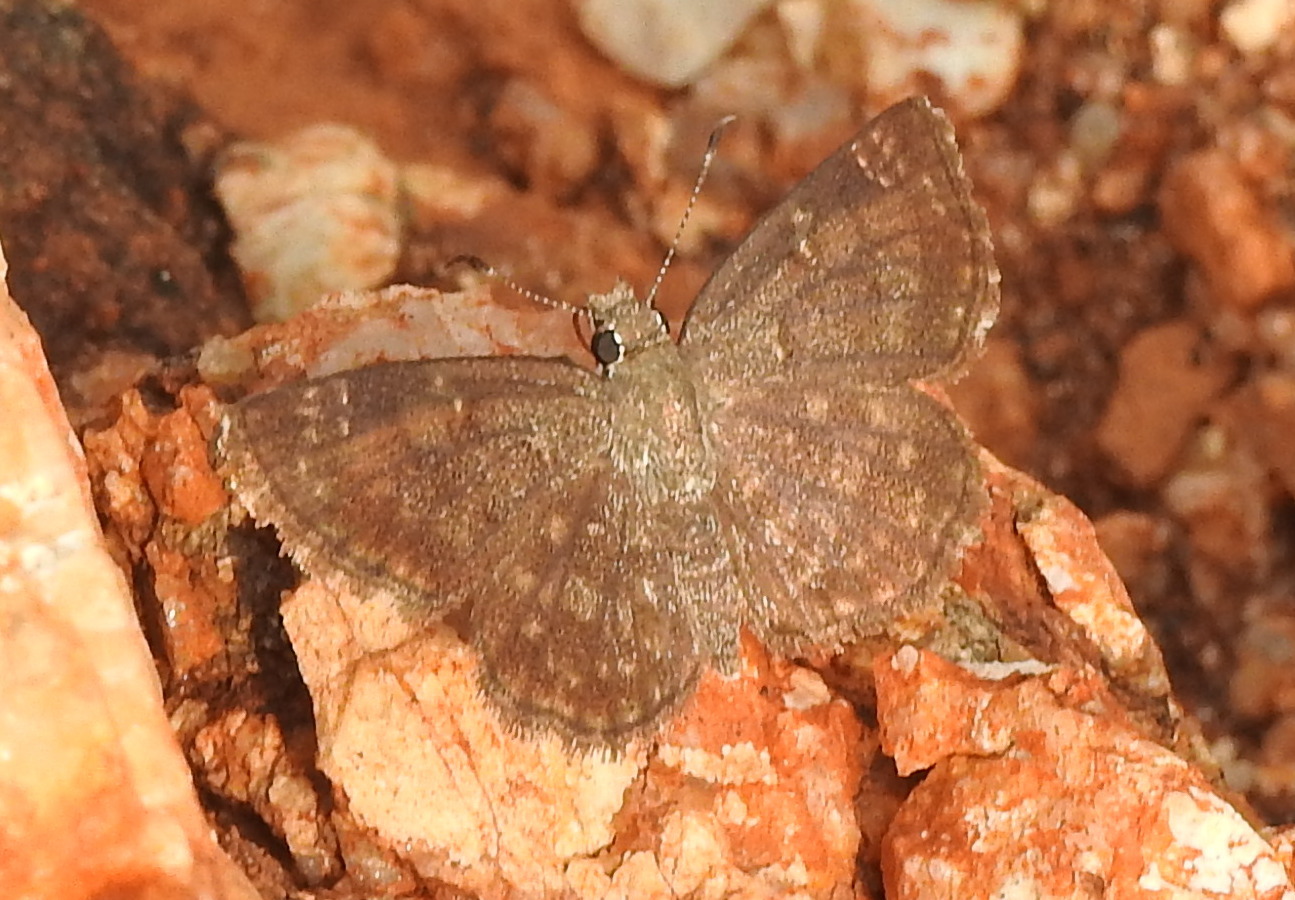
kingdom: Animalia
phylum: Arthropoda
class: Insecta
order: Lepidoptera
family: Hesperiidae
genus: Sarangesa
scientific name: Sarangesa purendra
